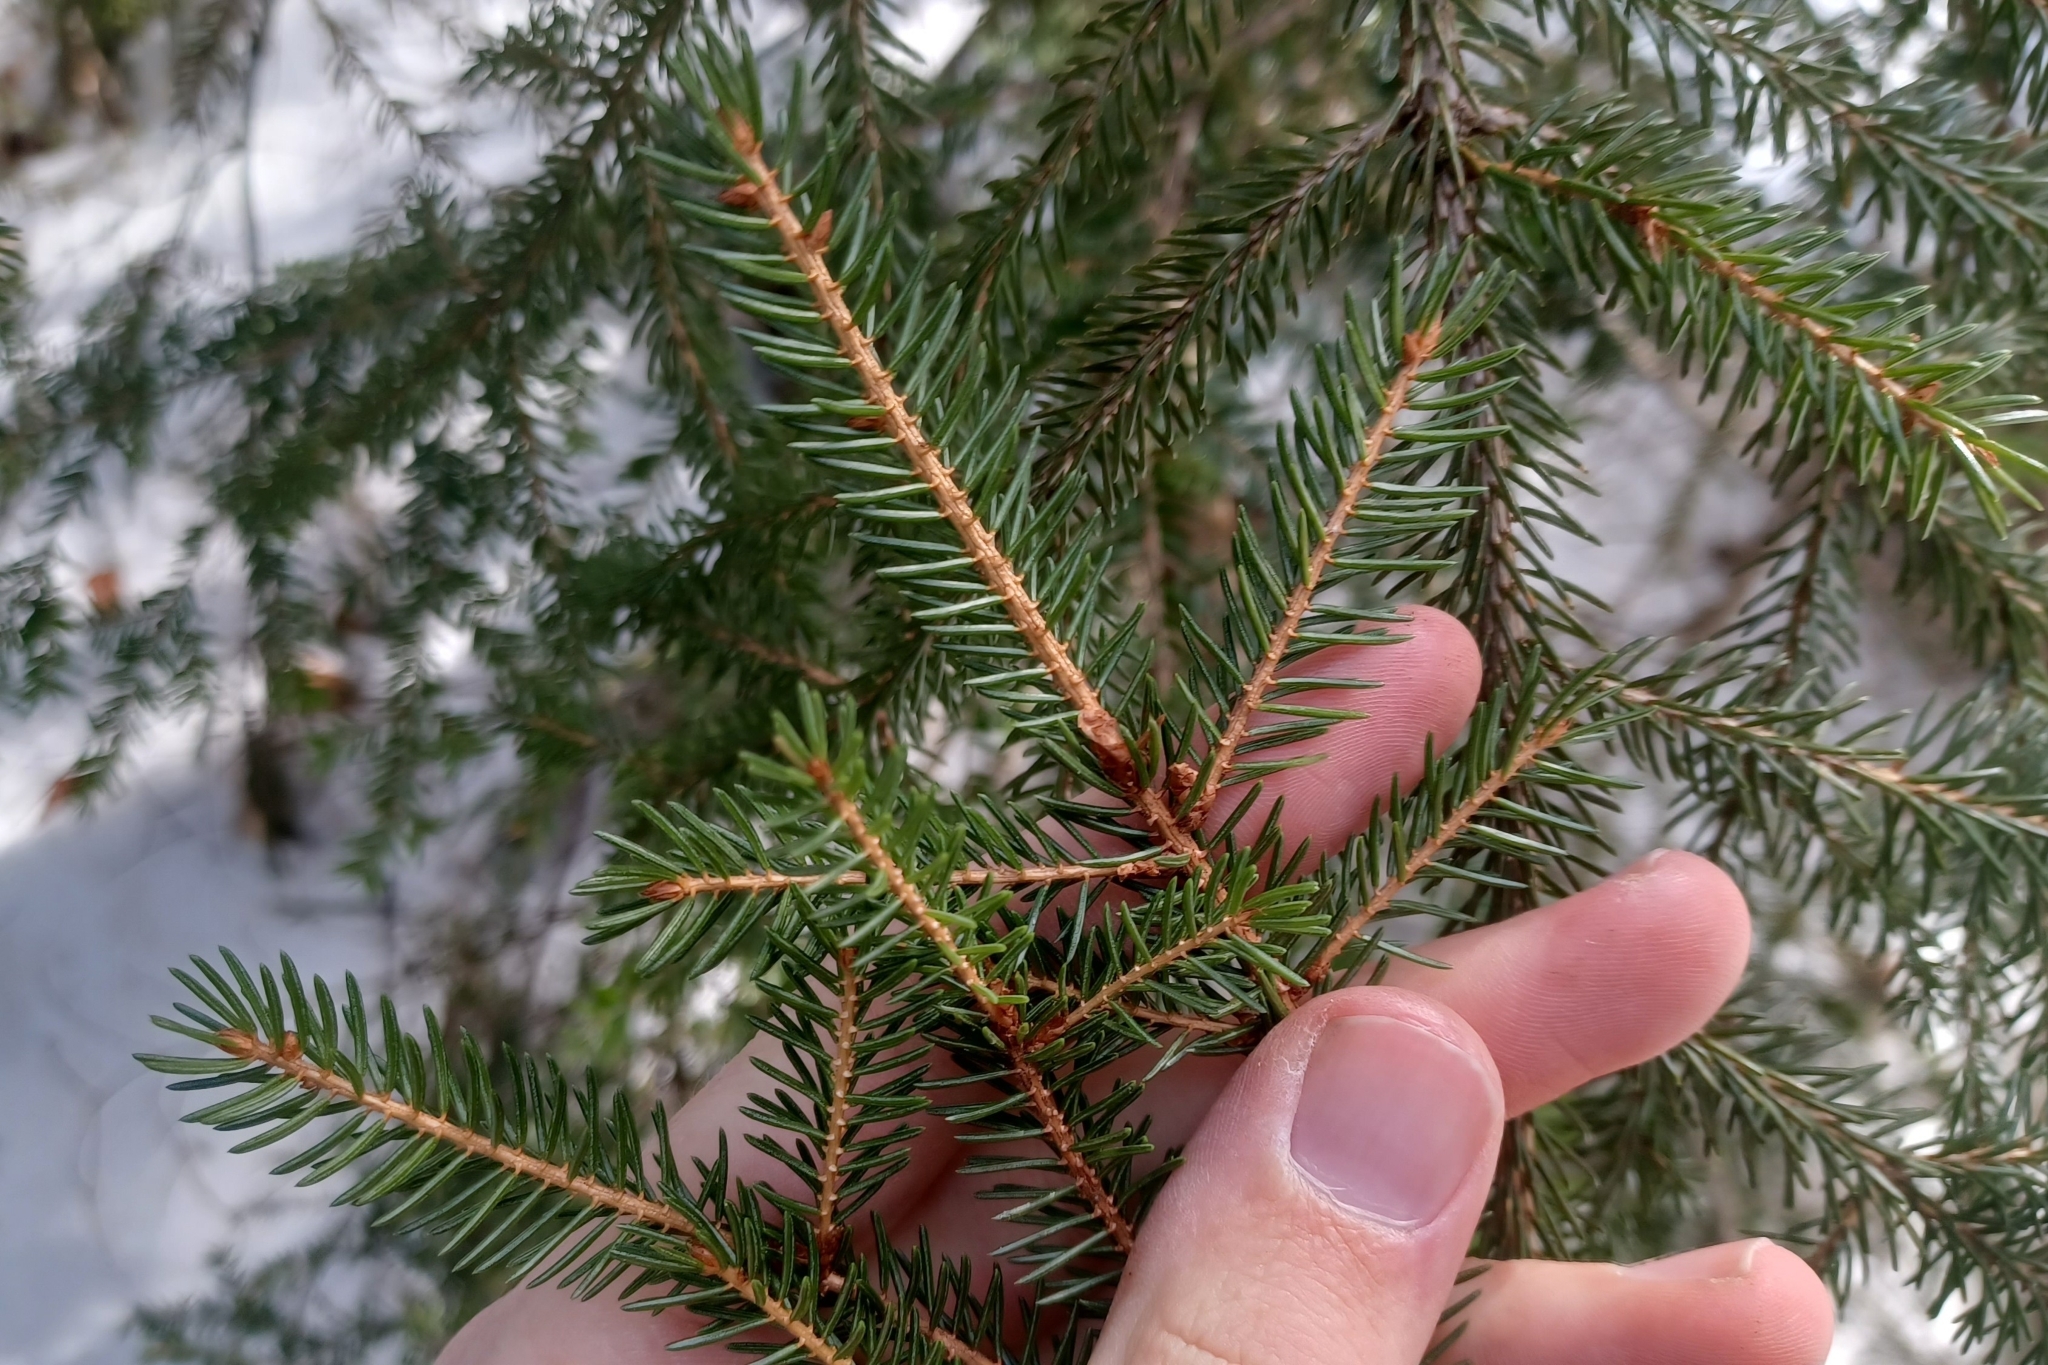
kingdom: Plantae
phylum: Tracheophyta
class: Pinopsida
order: Pinales
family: Pinaceae
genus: Picea
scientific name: Picea rubens
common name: Red spruce
